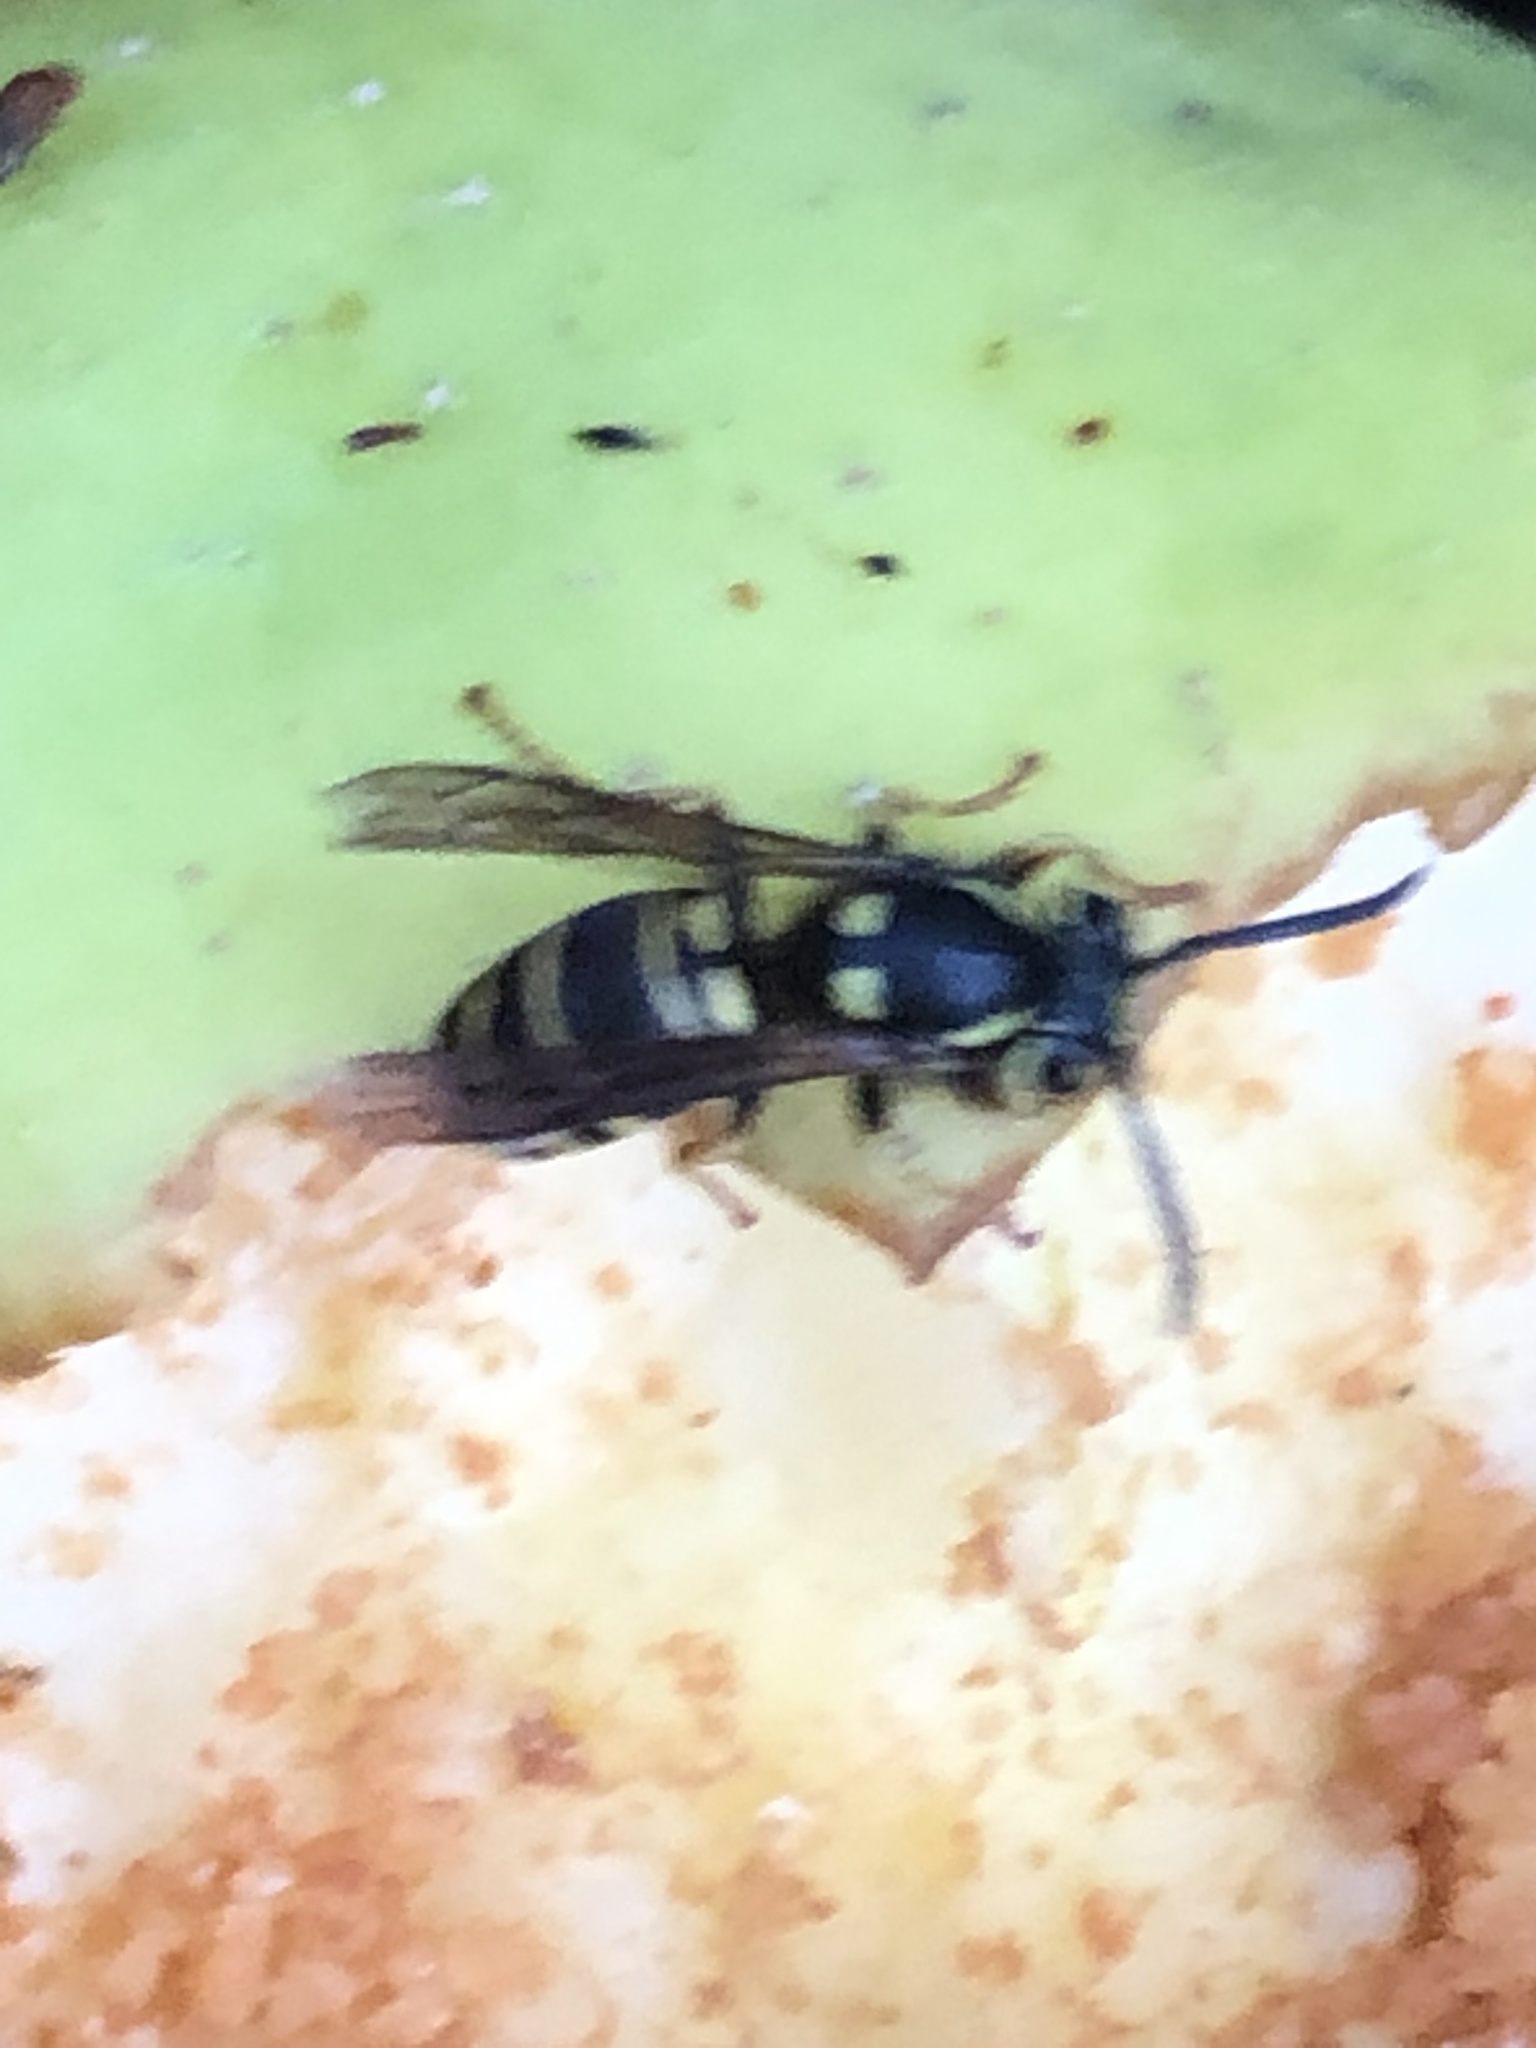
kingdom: Animalia
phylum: Arthropoda
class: Insecta
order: Hymenoptera
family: Vespidae
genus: Vespula
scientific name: Vespula vidua
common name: Widow yellowjacket
